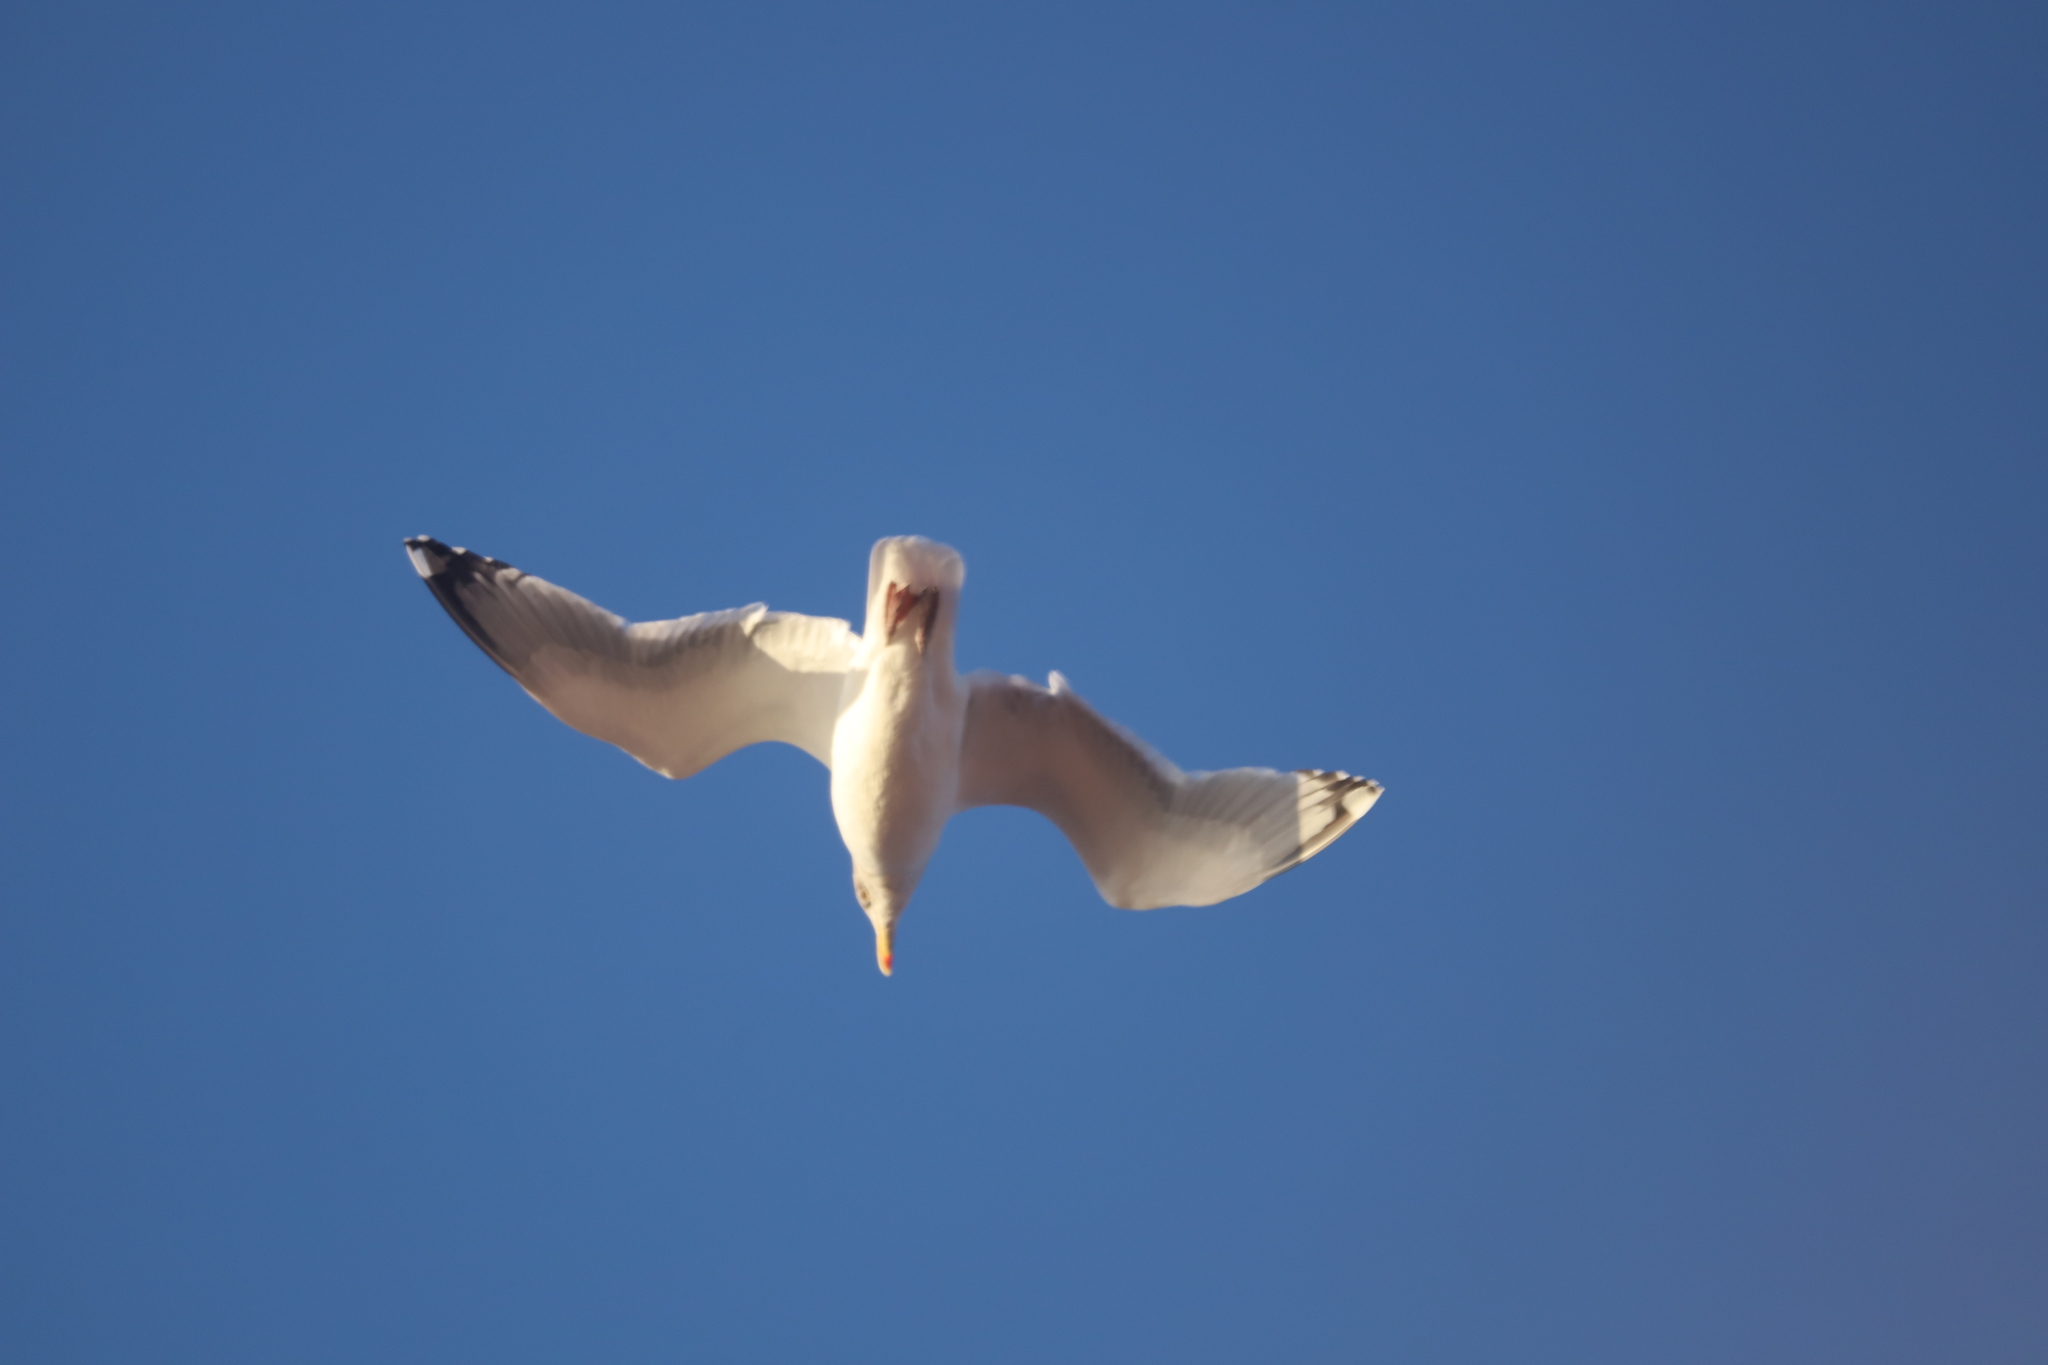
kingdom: Animalia
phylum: Chordata
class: Aves
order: Charadriiformes
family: Laridae
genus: Larus
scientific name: Larus argentatus
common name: Herring gull
